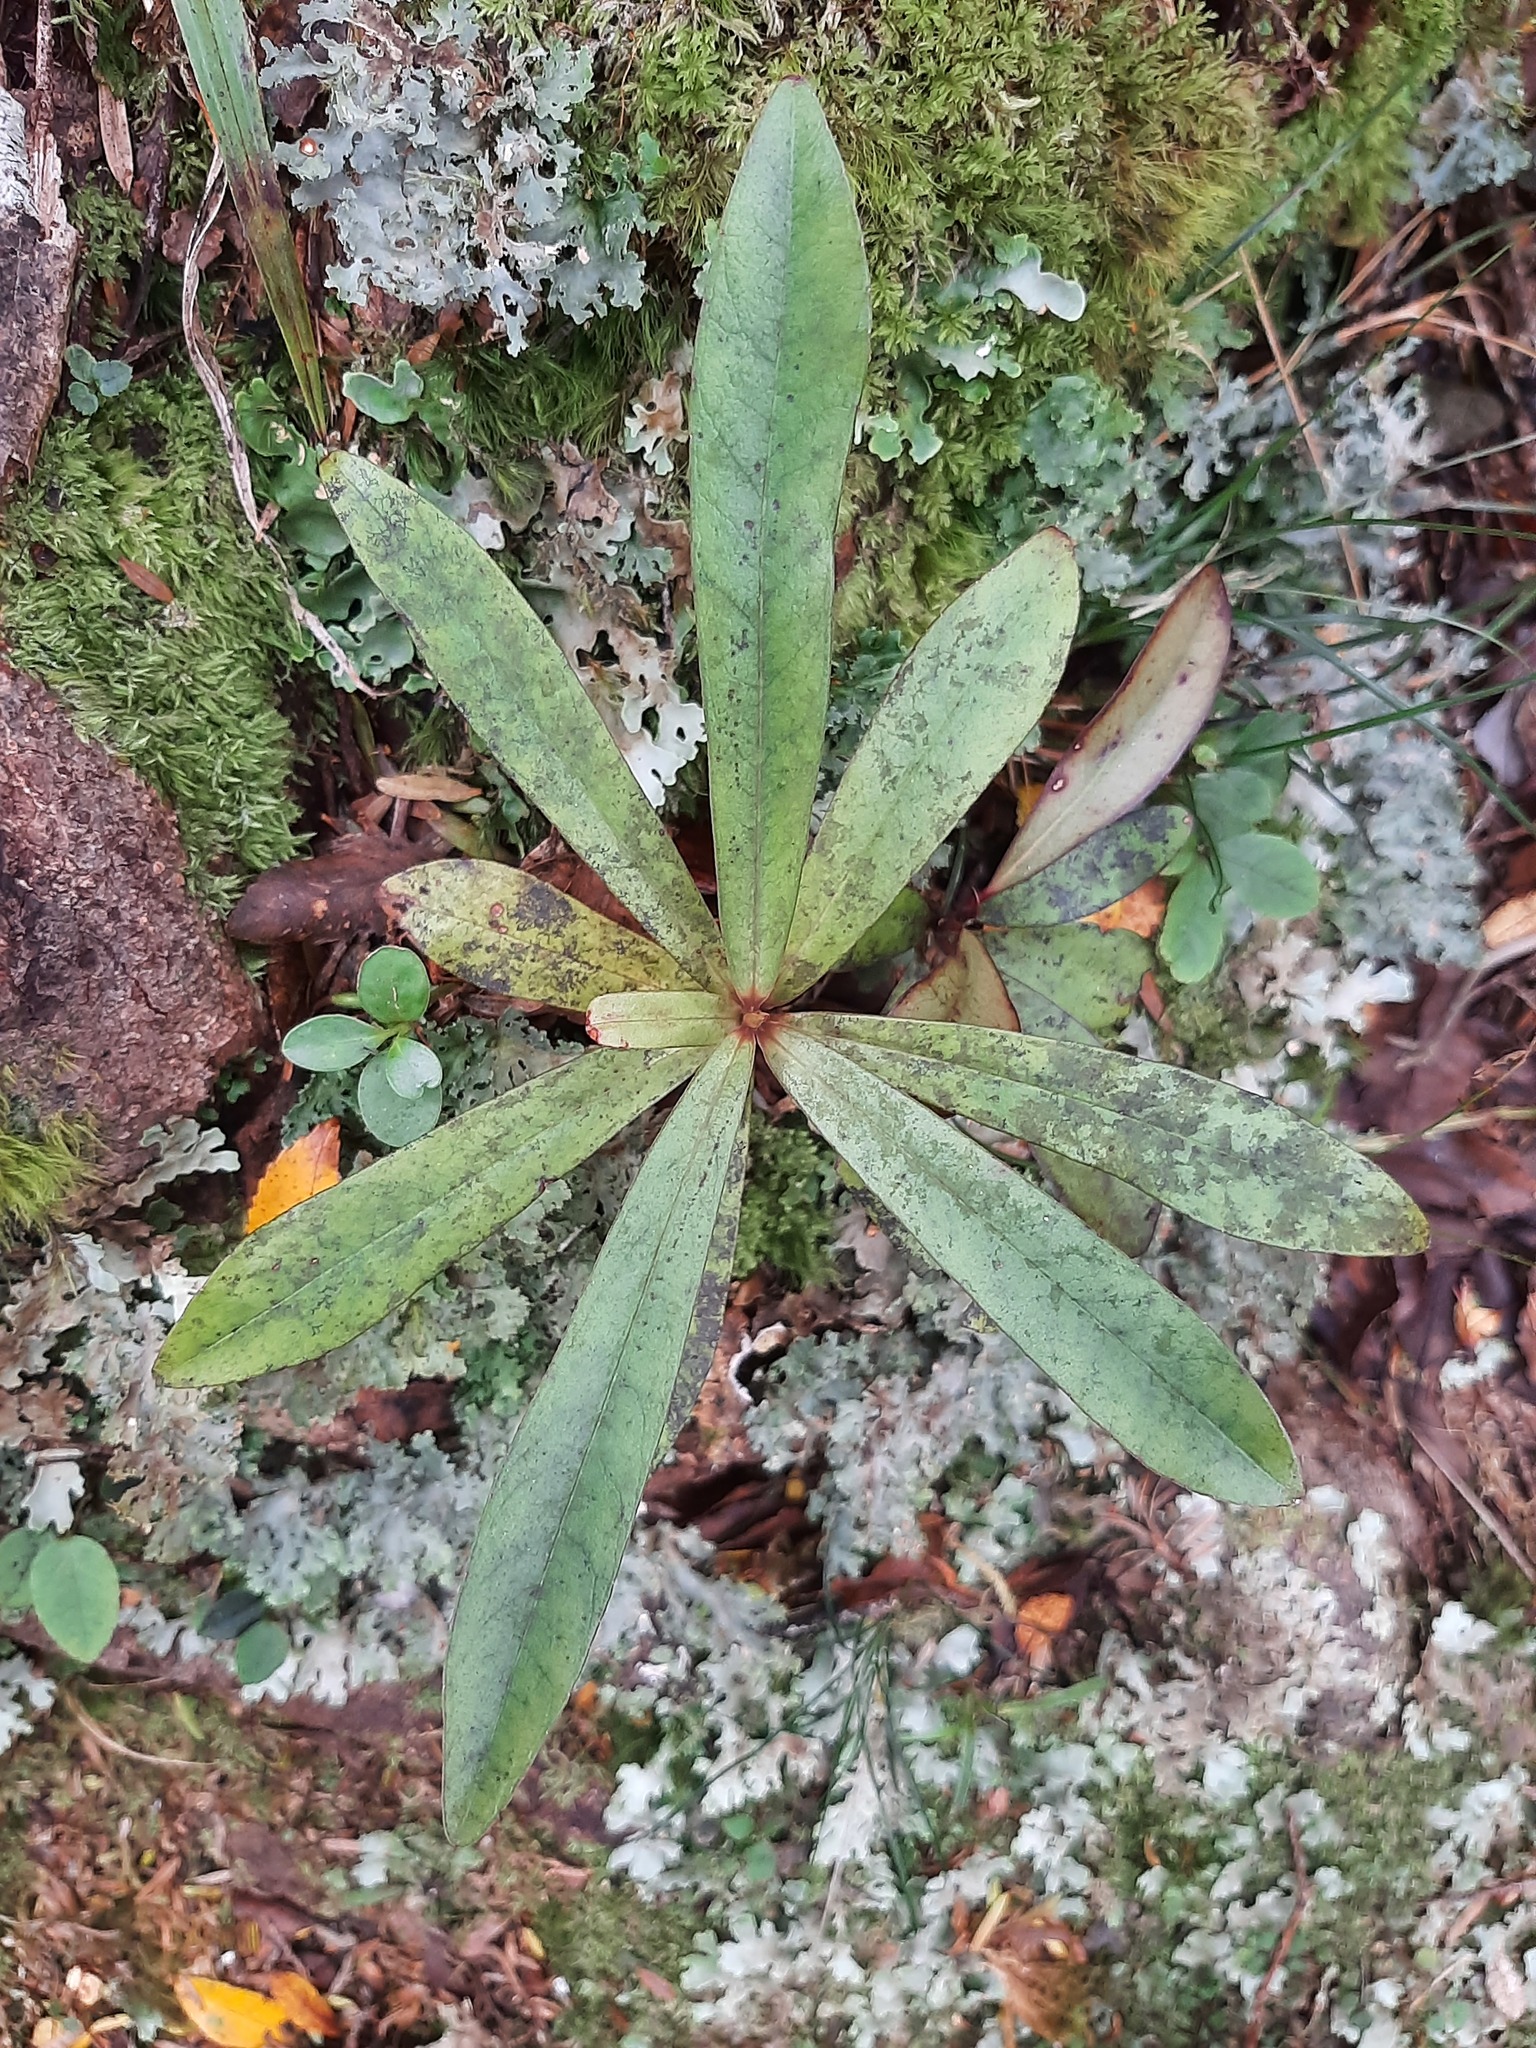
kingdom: Plantae
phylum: Tracheophyta
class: Magnoliopsida
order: Ericales
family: Primulaceae
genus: Myrsine
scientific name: Myrsine salicina
